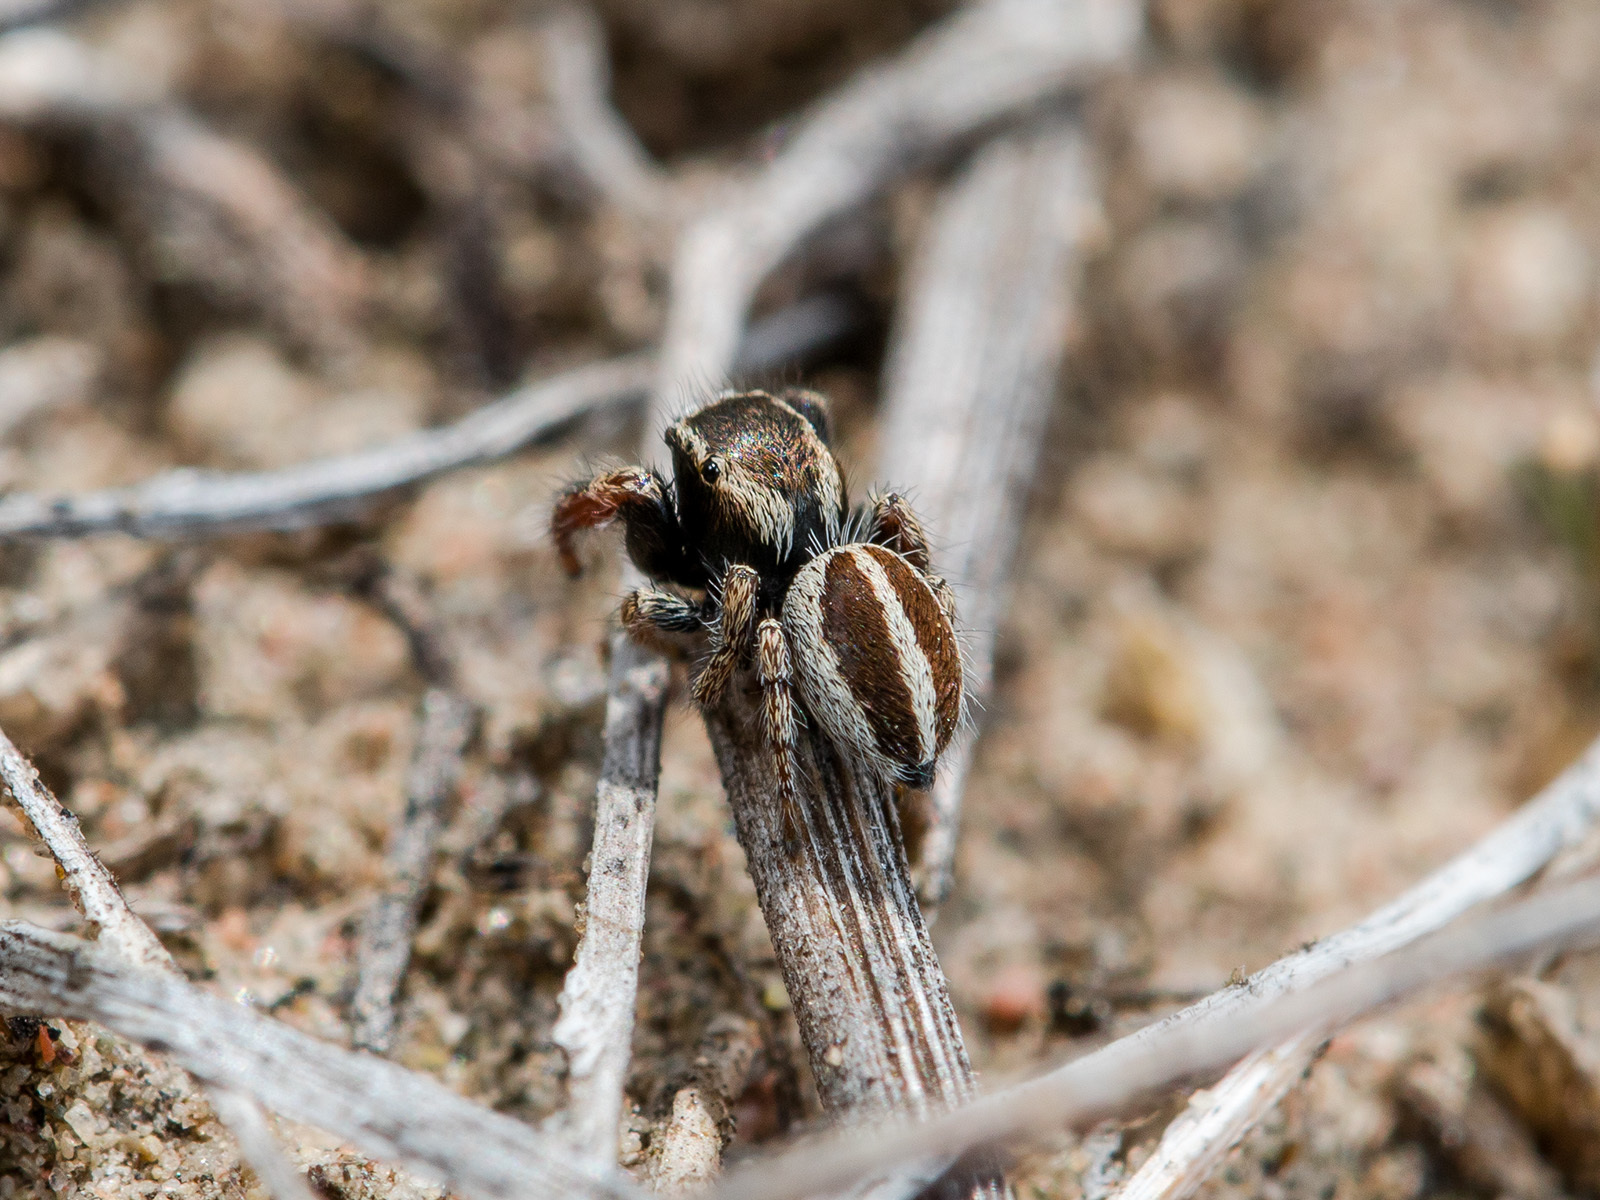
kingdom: Animalia
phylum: Arthropoda
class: Arachnida
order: Araneae
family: Salticidae
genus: Pellenes
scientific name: Pellenes epularis
